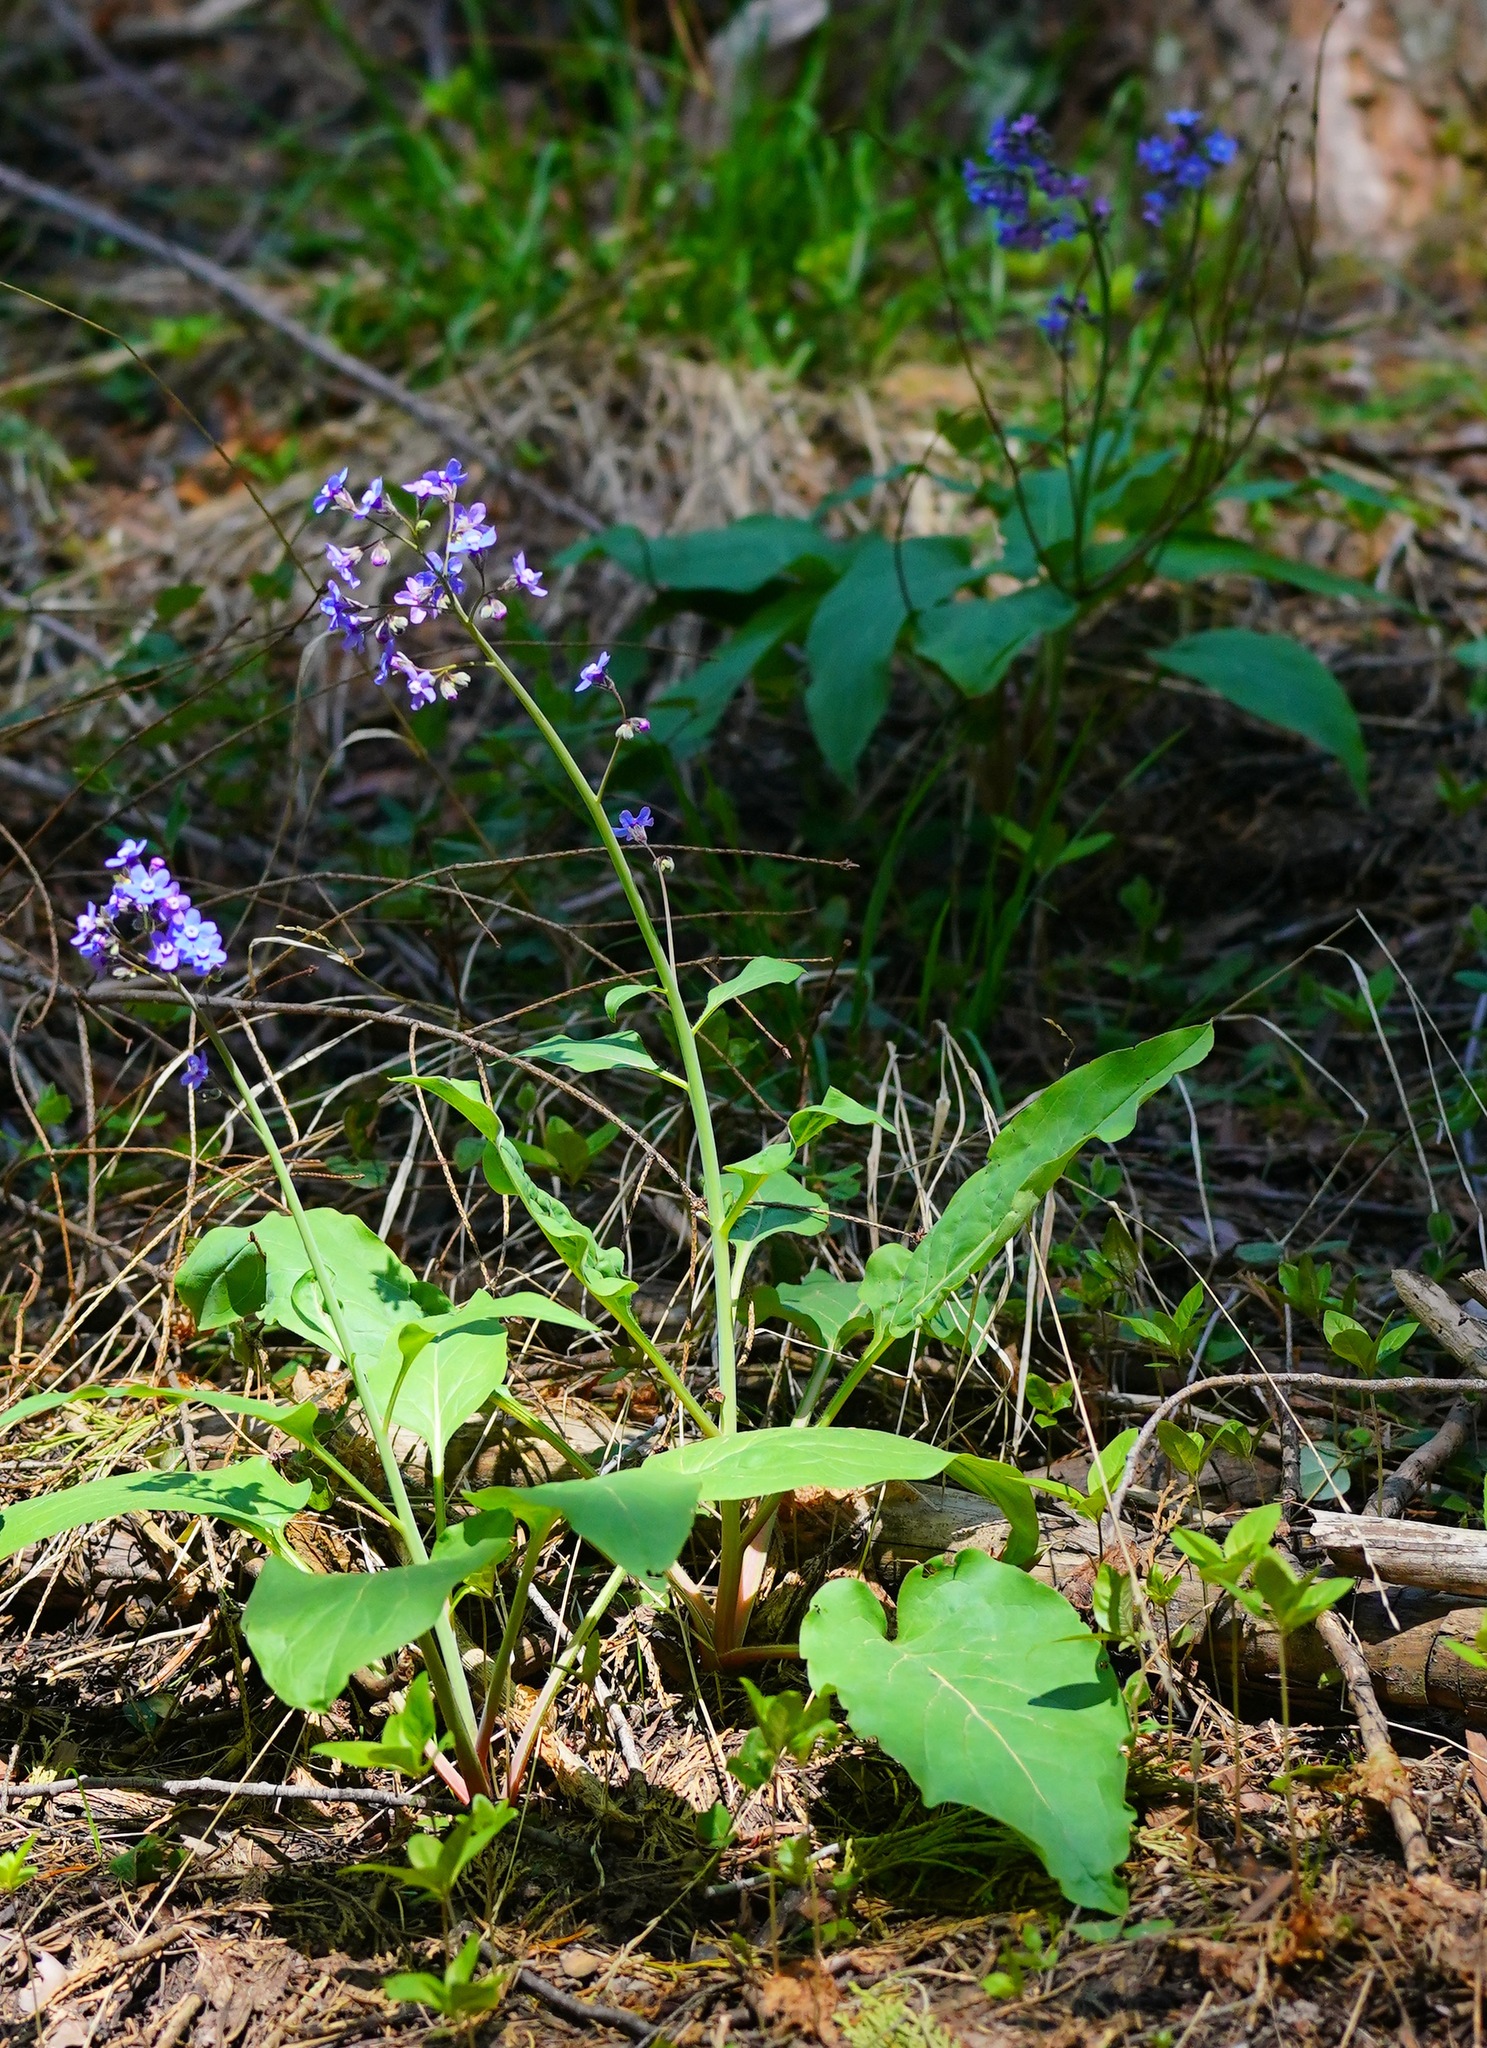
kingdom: Plantae
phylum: Tracheophyta
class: Magnoliopsida
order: Boraginales
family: Boraginaceae
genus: Adelinia
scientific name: Adelinia grande
